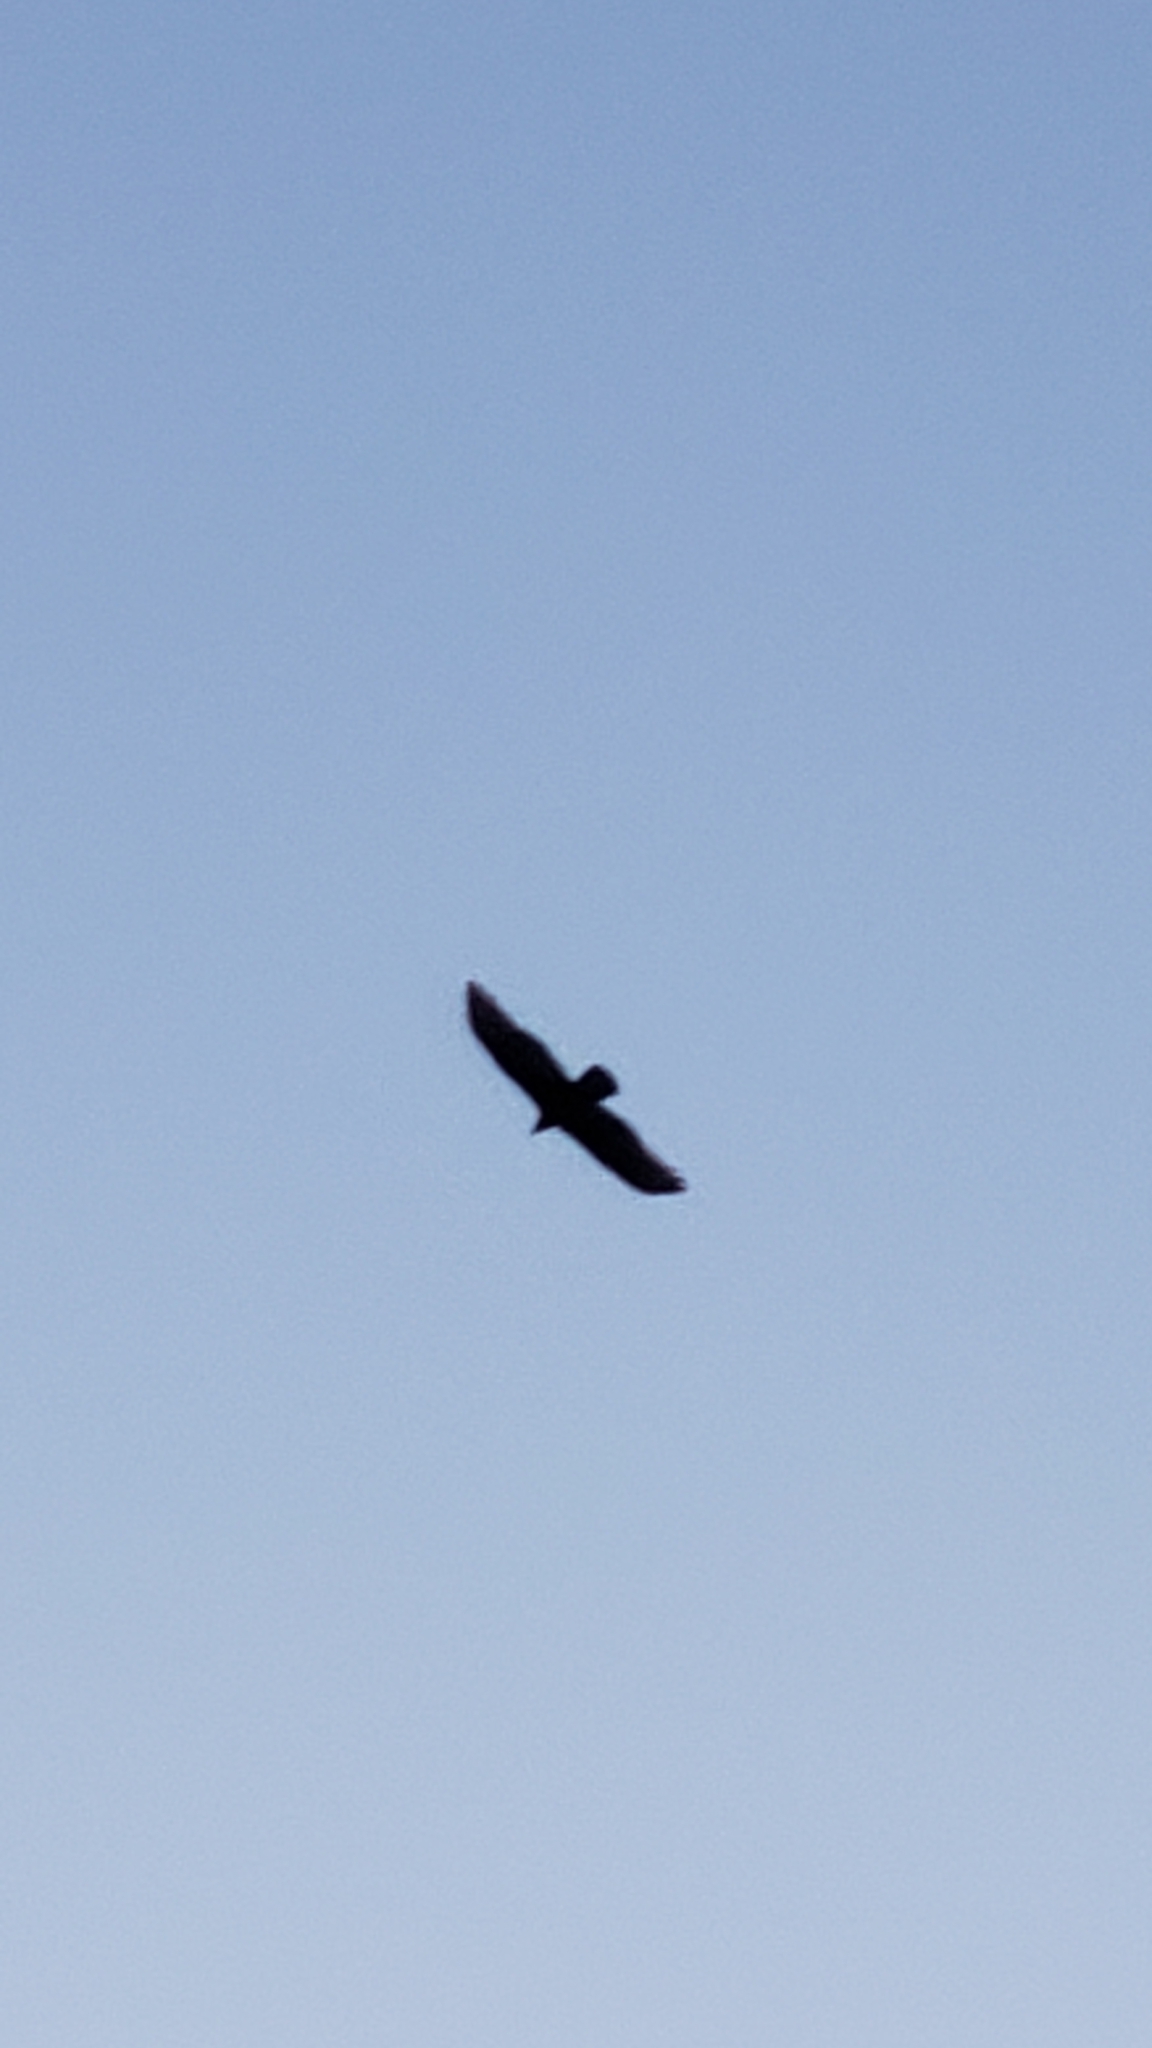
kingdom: Animalia
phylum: Chordata
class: Aves
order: Accipitriformes
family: Cathartidae
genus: Cathartes
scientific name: Cathartes aura
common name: Turkey vulture
